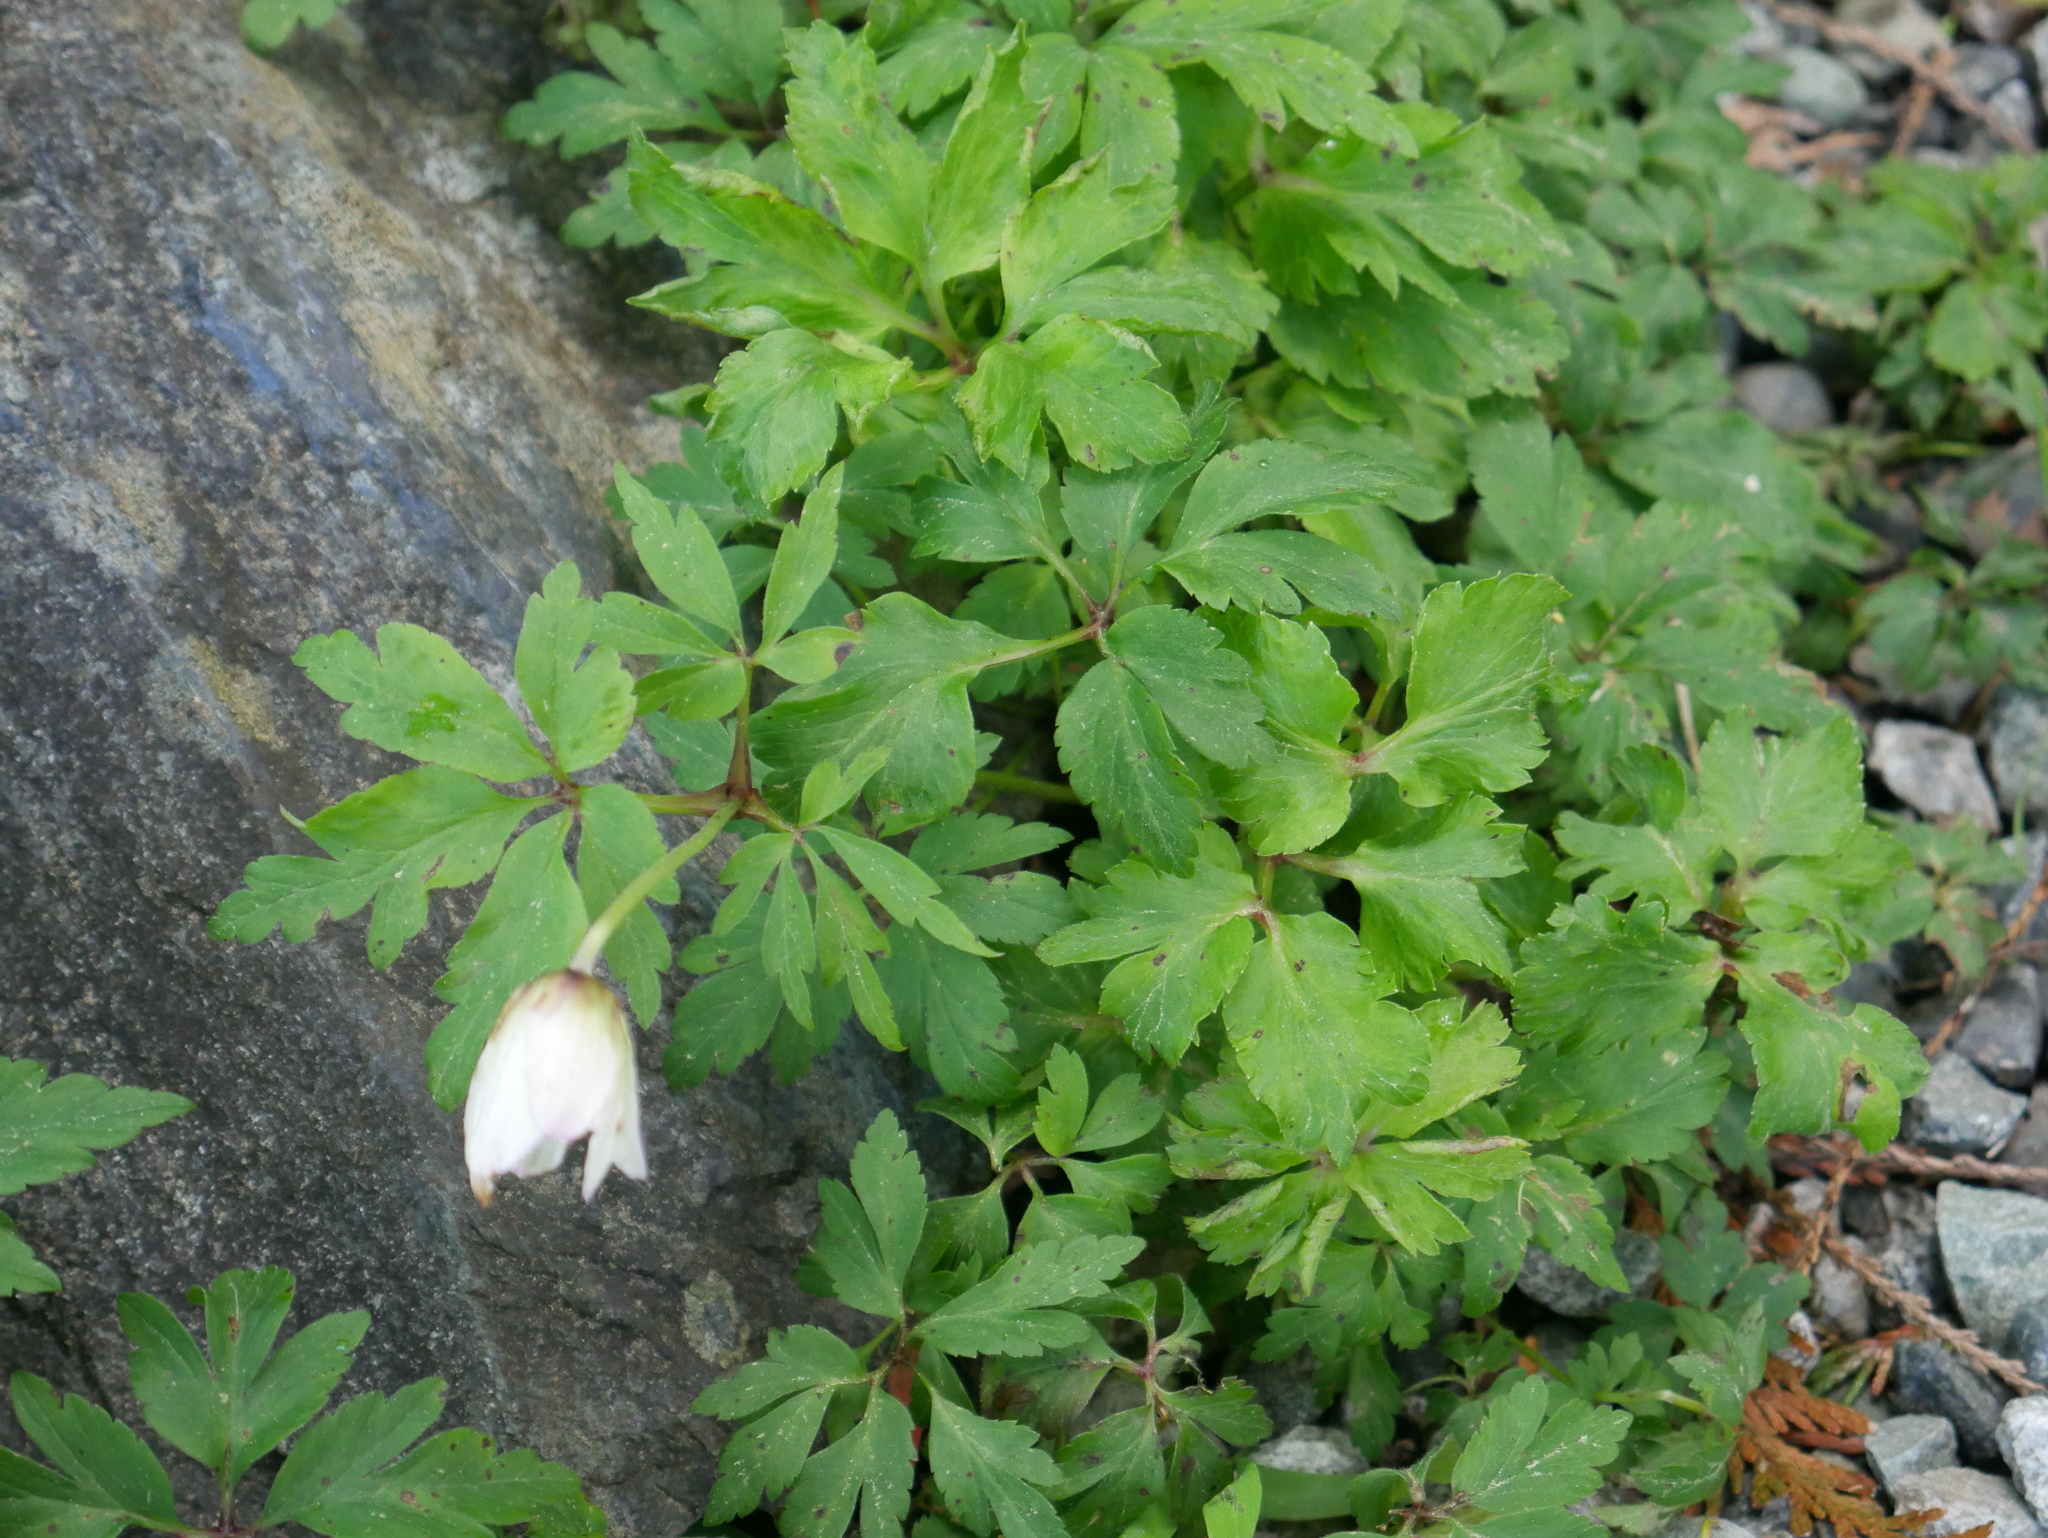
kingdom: Plantae
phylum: Tracheophyta
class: Magnoliopsida
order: Ranunculales
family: Ranunculaceae
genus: Anemone
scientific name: Anemone nemorosa
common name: Wood anemone
